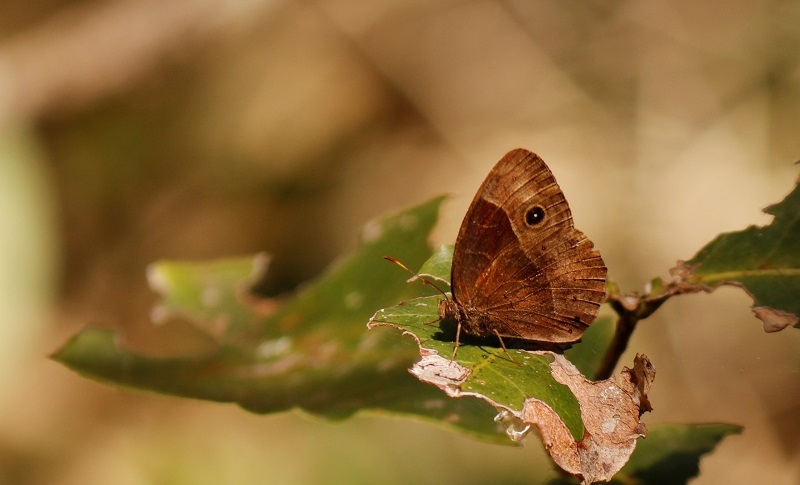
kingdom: Animalia
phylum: Arthropoda
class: Insecta
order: Lepidoptera
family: Nymphalidae
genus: Mycalesis
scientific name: Mycalesis rhacotis
